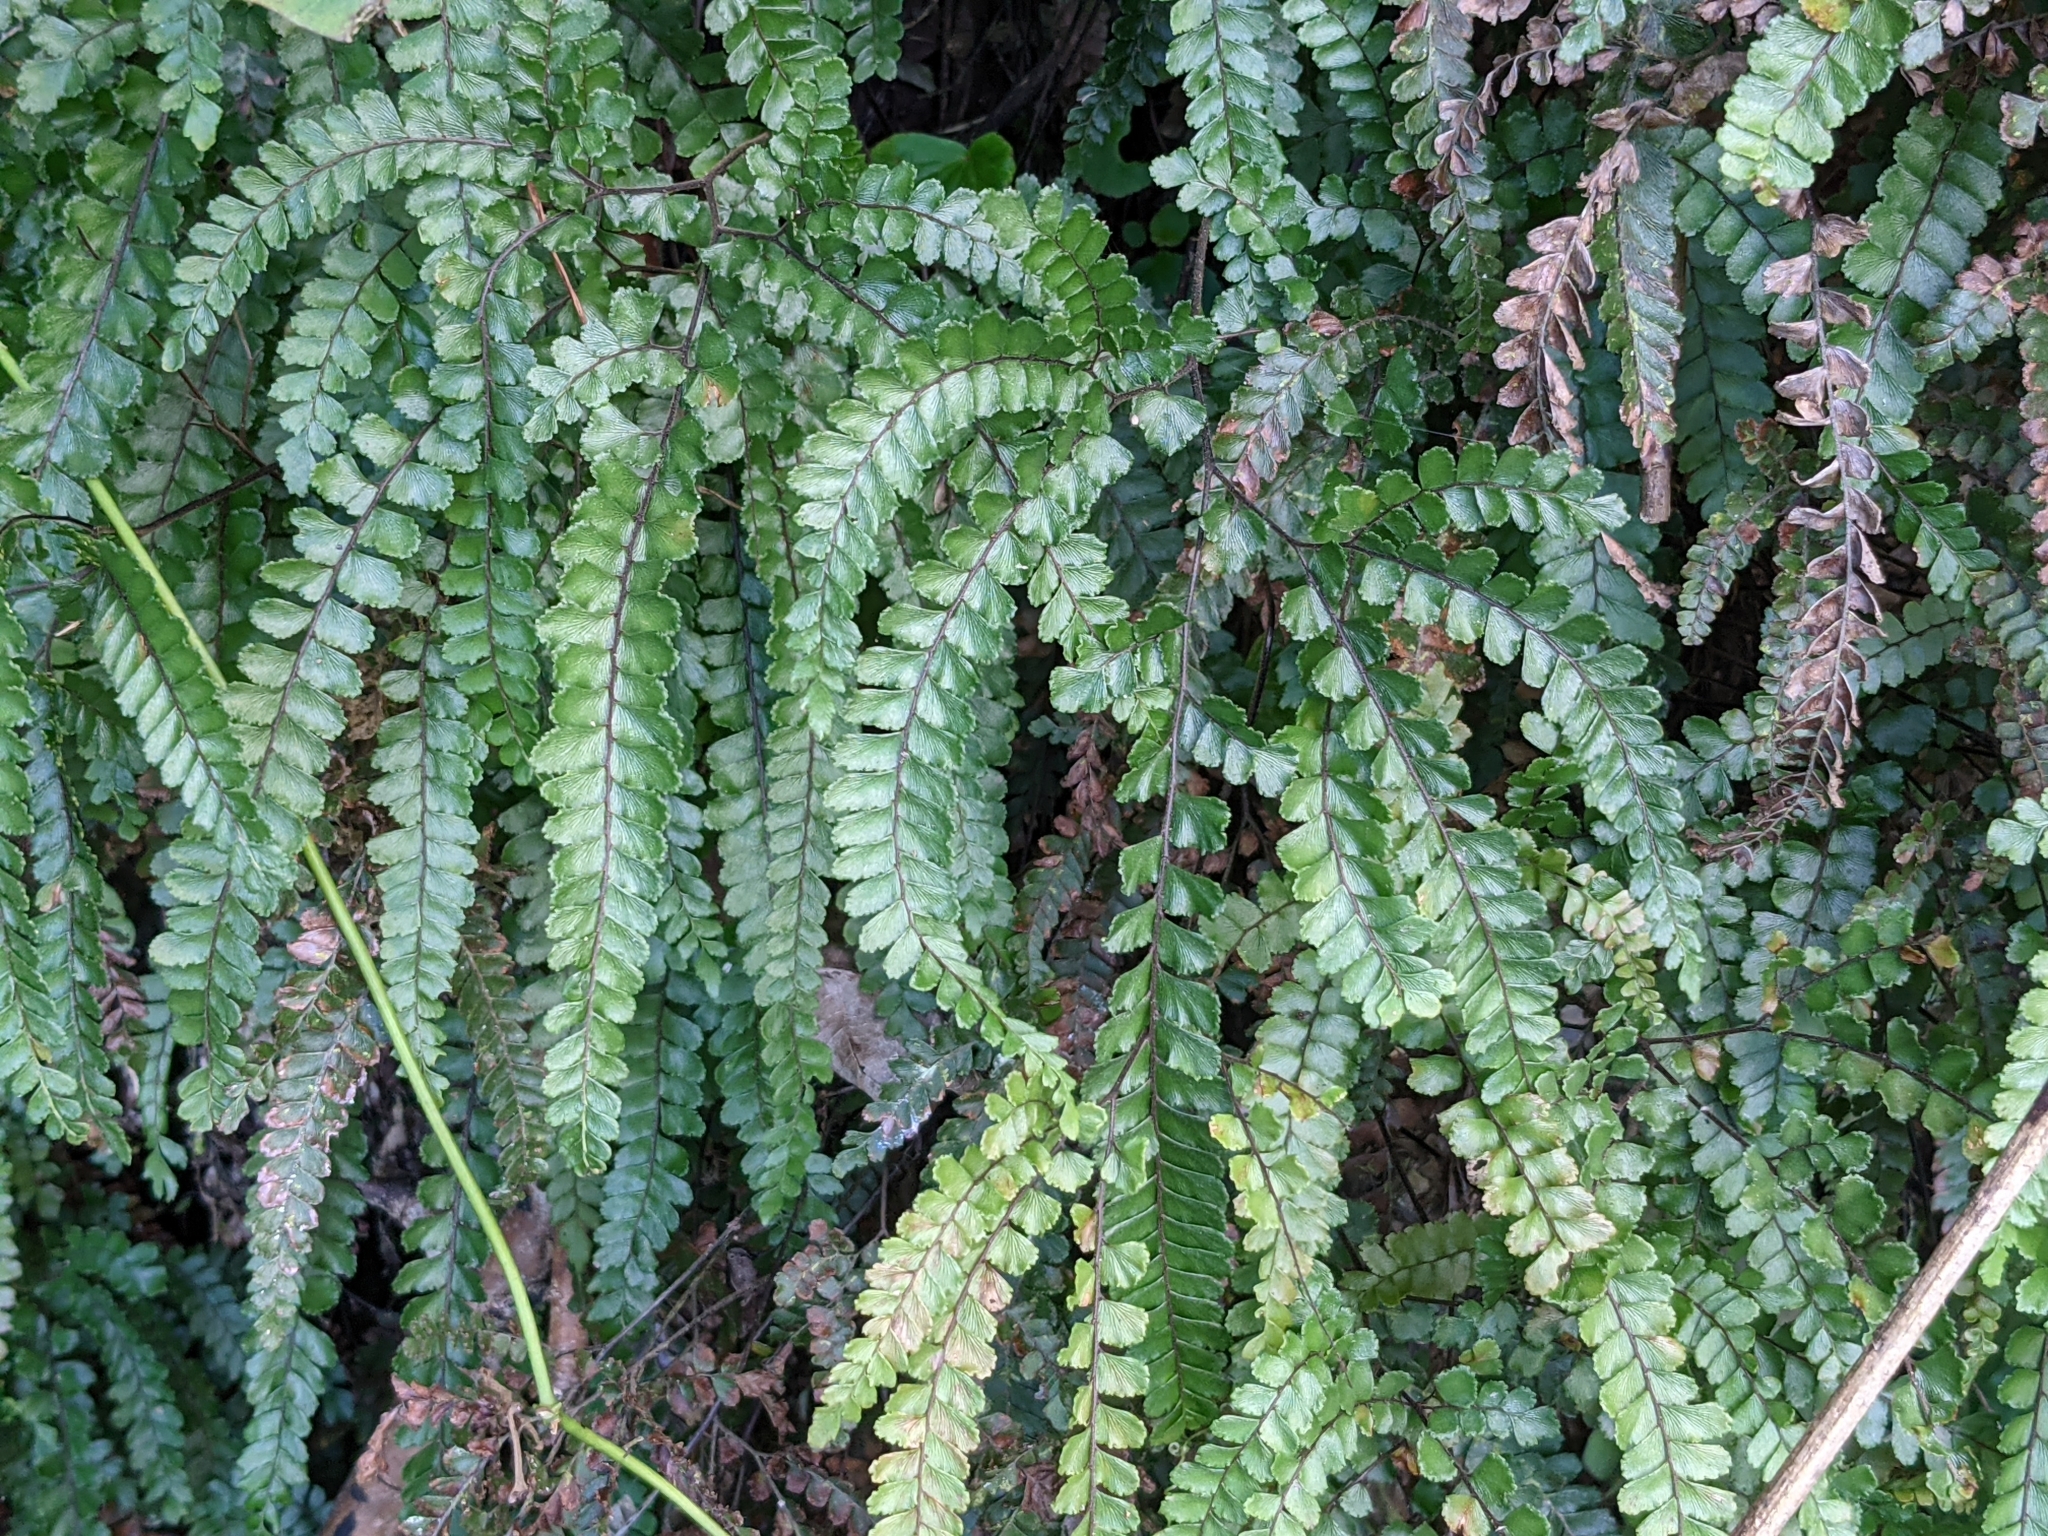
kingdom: Plantae
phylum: Tracheophyta
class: Polypodiopsida
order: Polypodiales
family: Pteridaceae
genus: Adiantum
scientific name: Adiantum hispidulum
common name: Rough maidenhair
